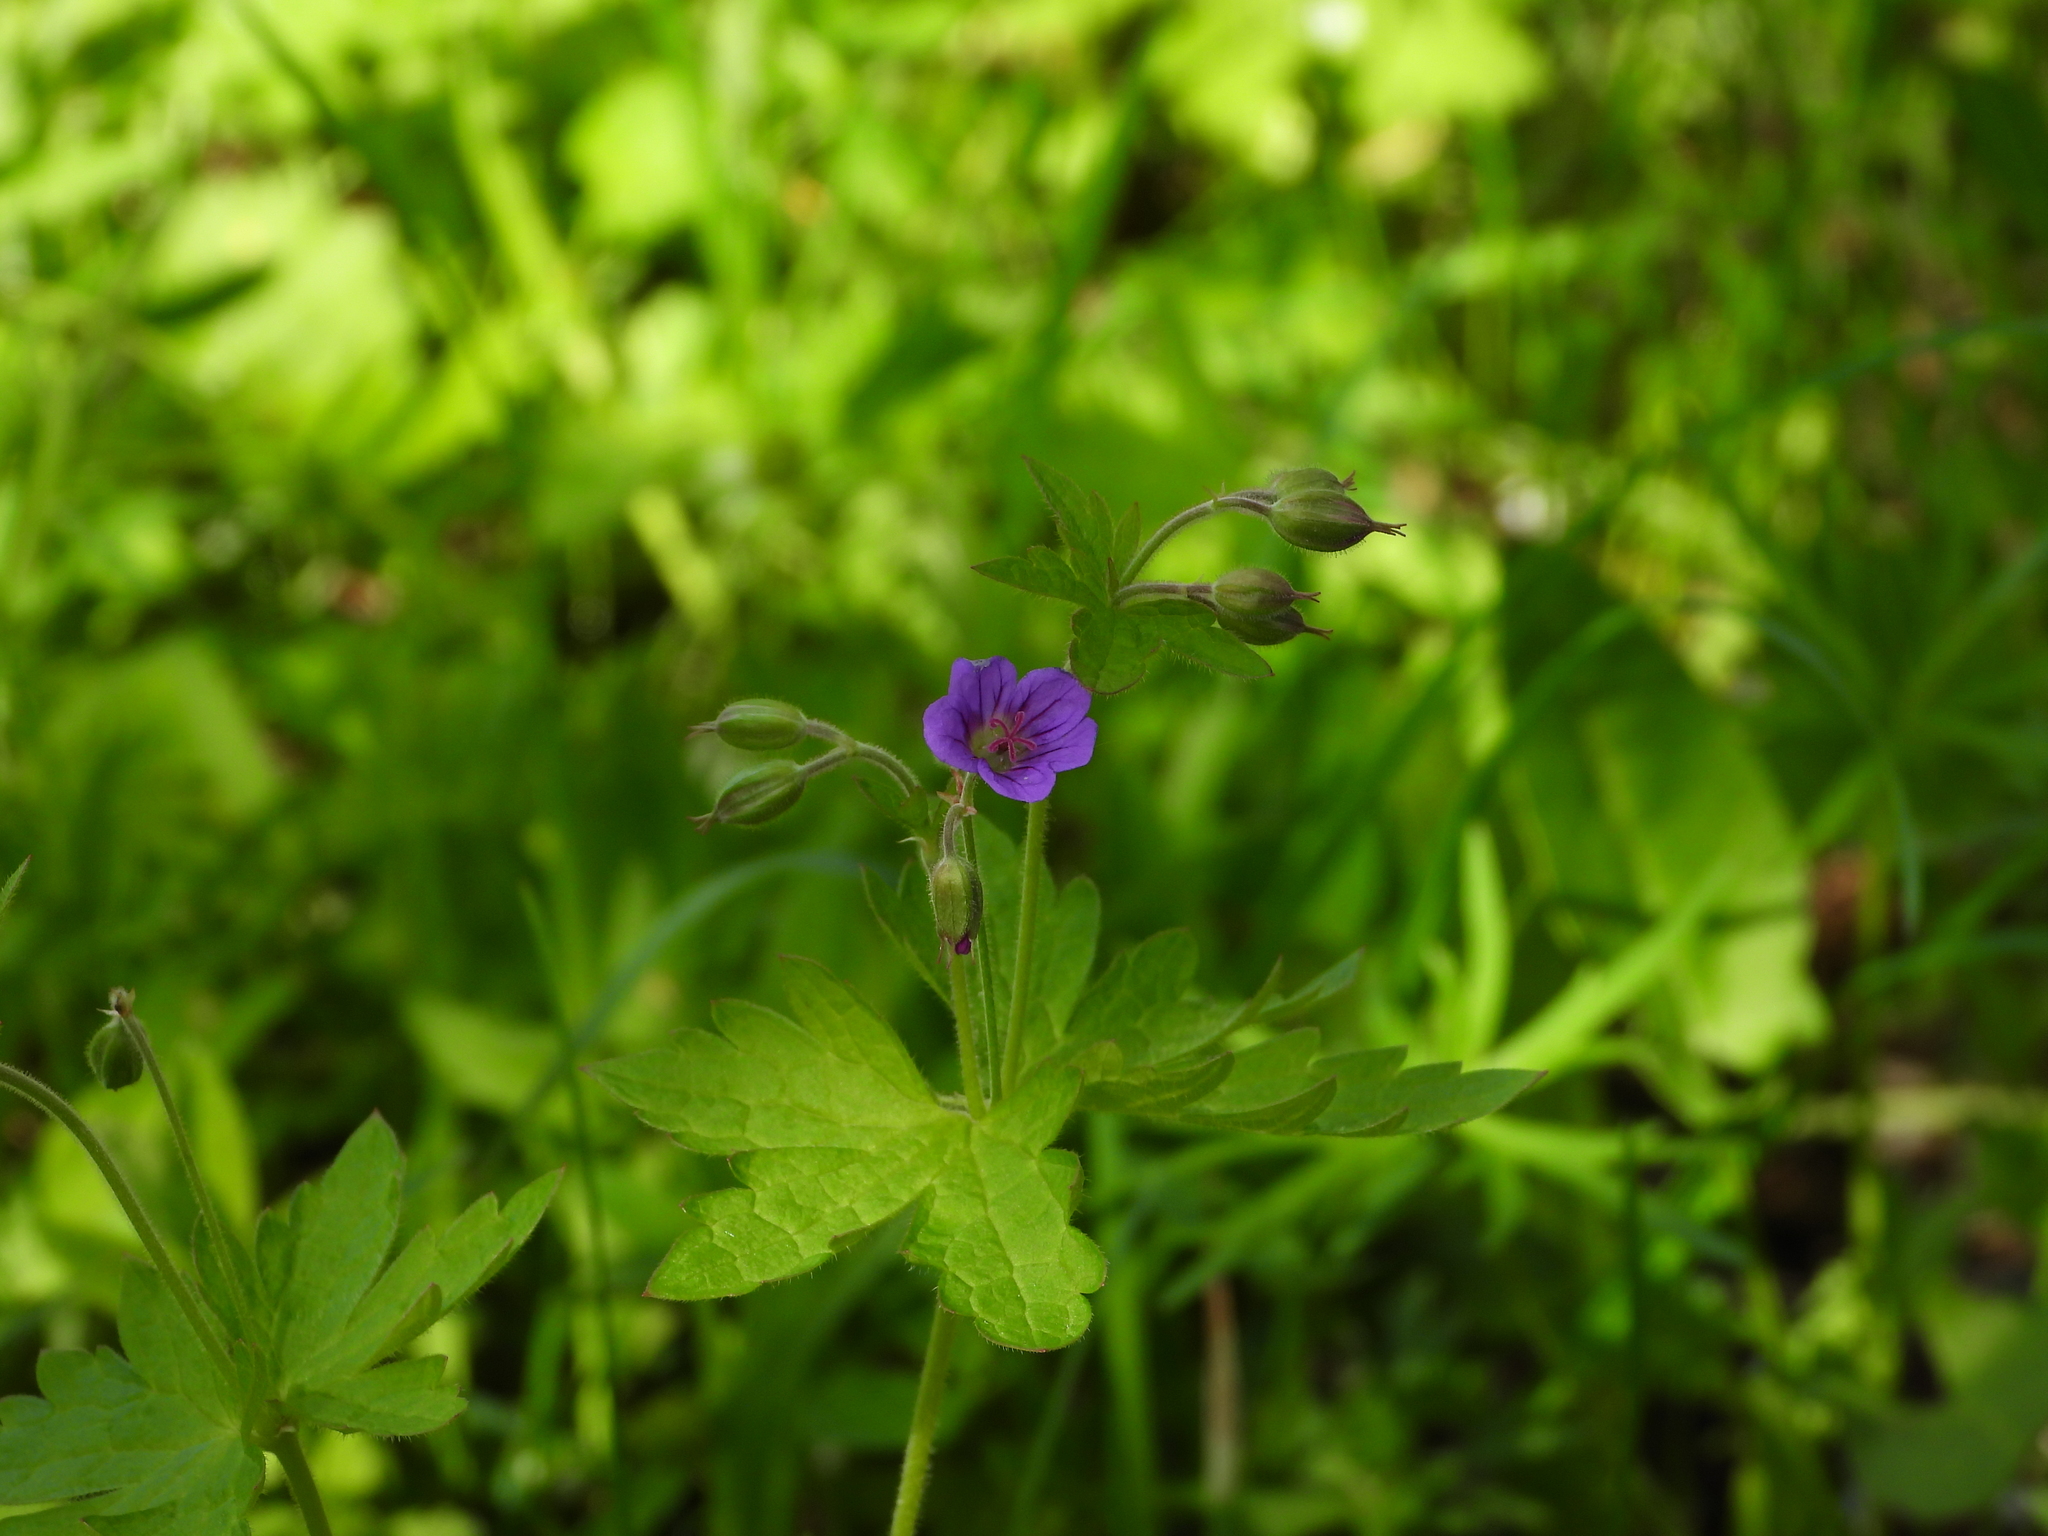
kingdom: Plantae
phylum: Tracheophyta
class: Magnoliopsida
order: Geraniales
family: Geraniaceae
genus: Geranium
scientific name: Geranium sylvaticum
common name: Wood crane's-bill
